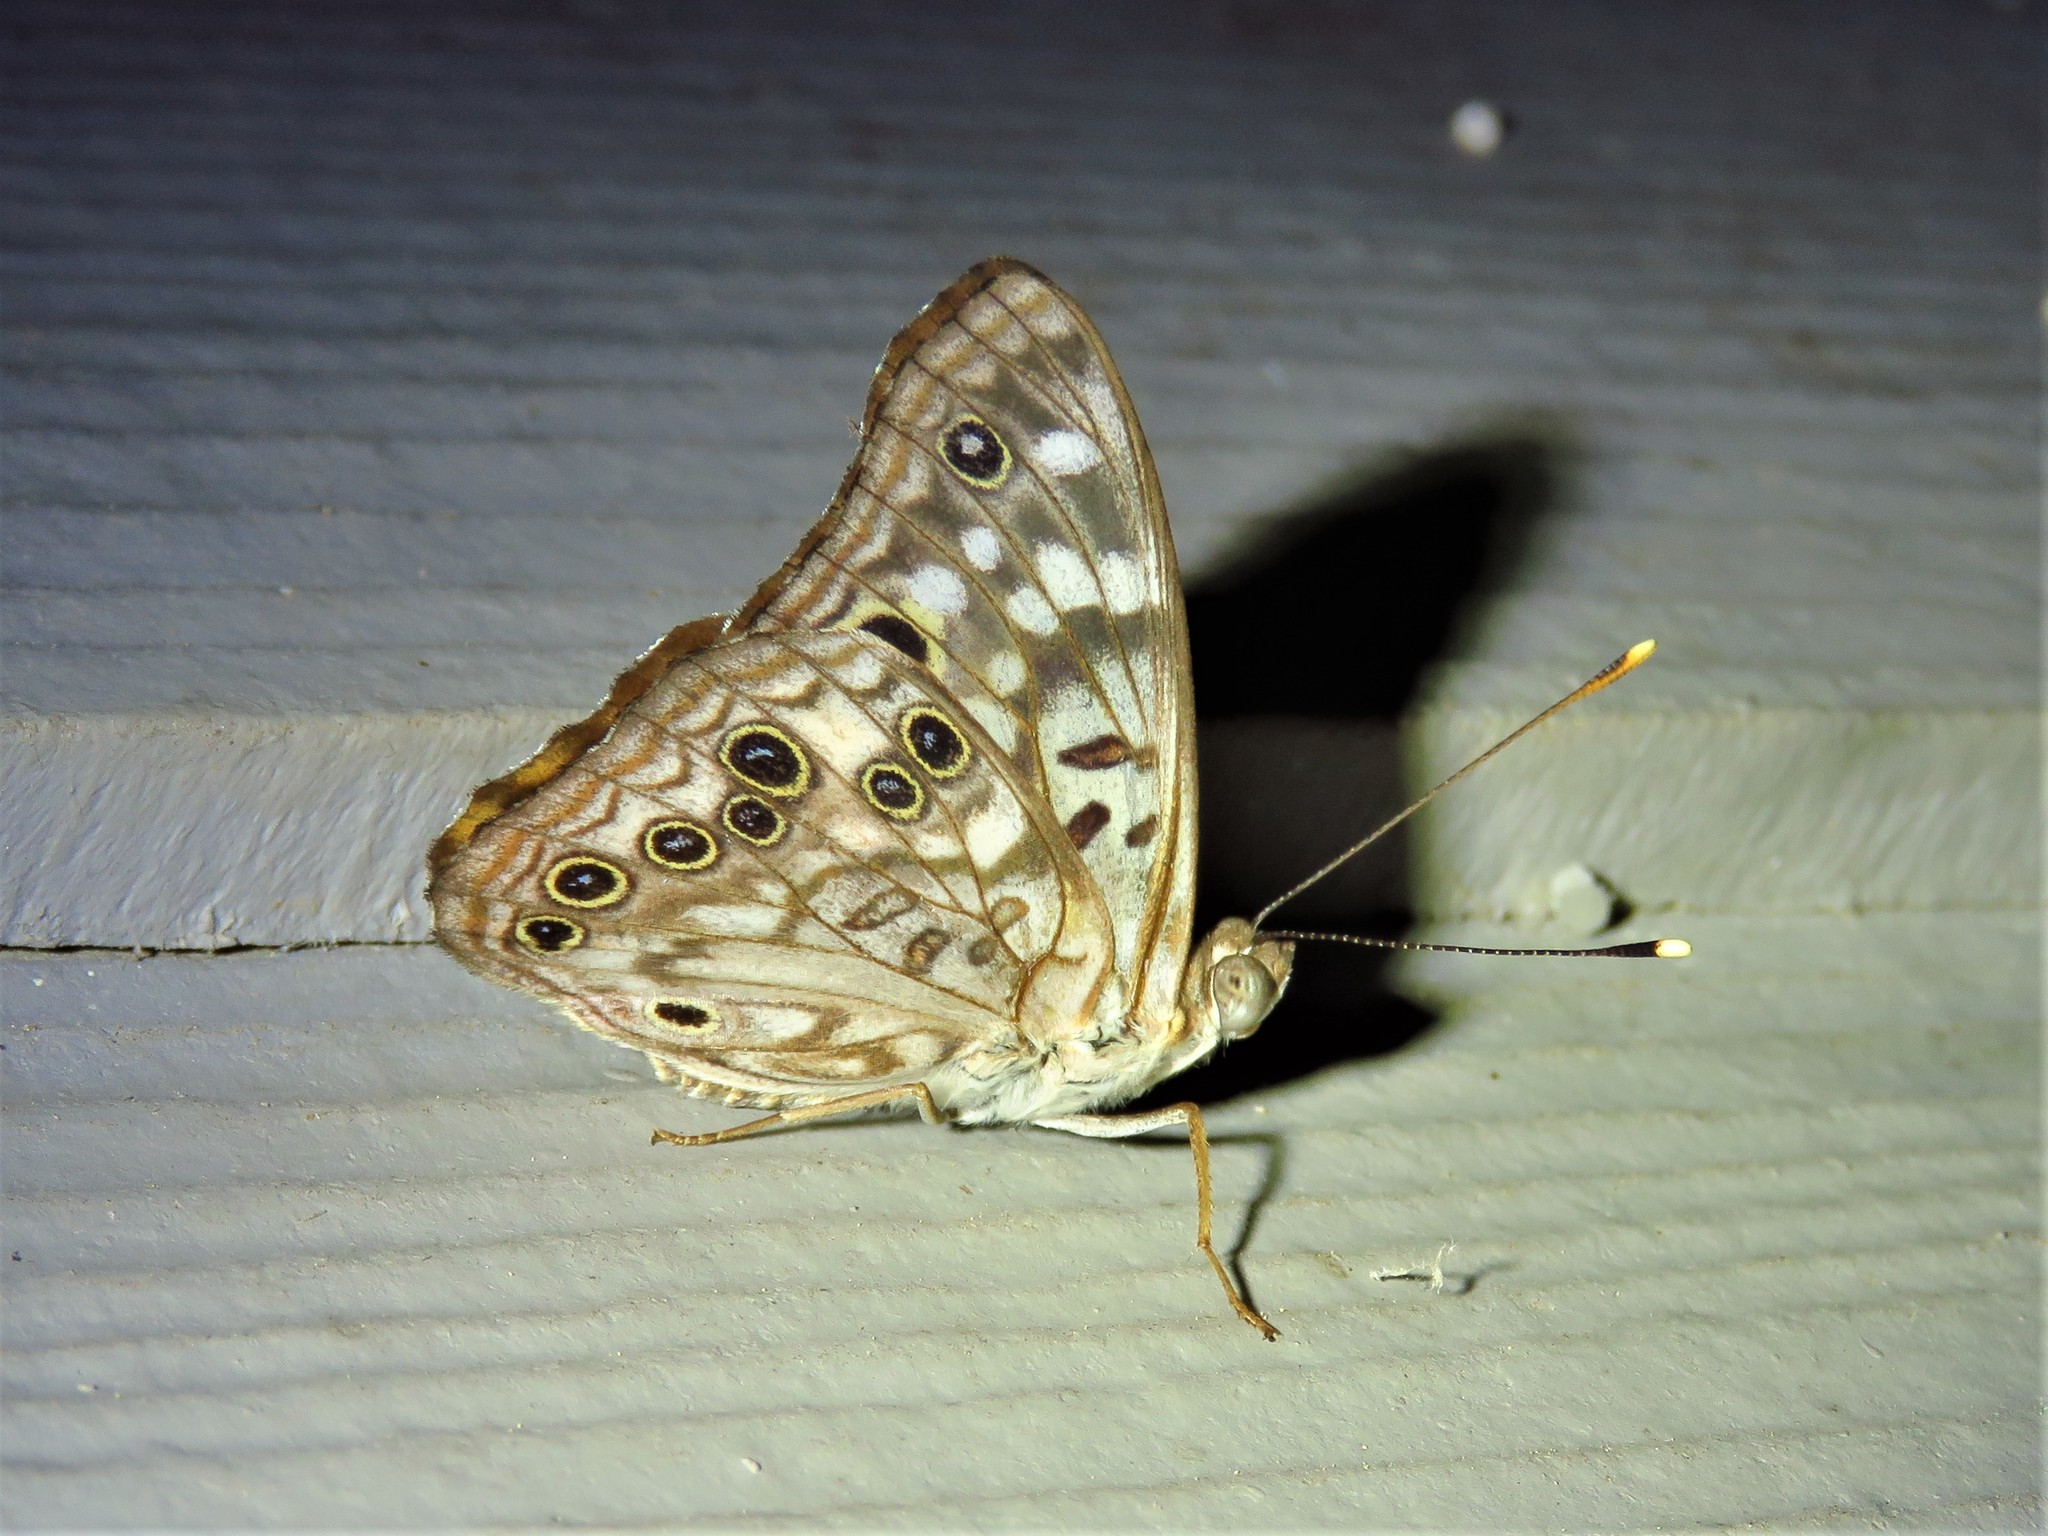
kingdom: Animalia
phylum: Arthropoda
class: Insecta
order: Lepidoptera
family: Nymphalidae
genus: Asterocampa
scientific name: Asterocampa celtis
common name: Hackberry emperor
